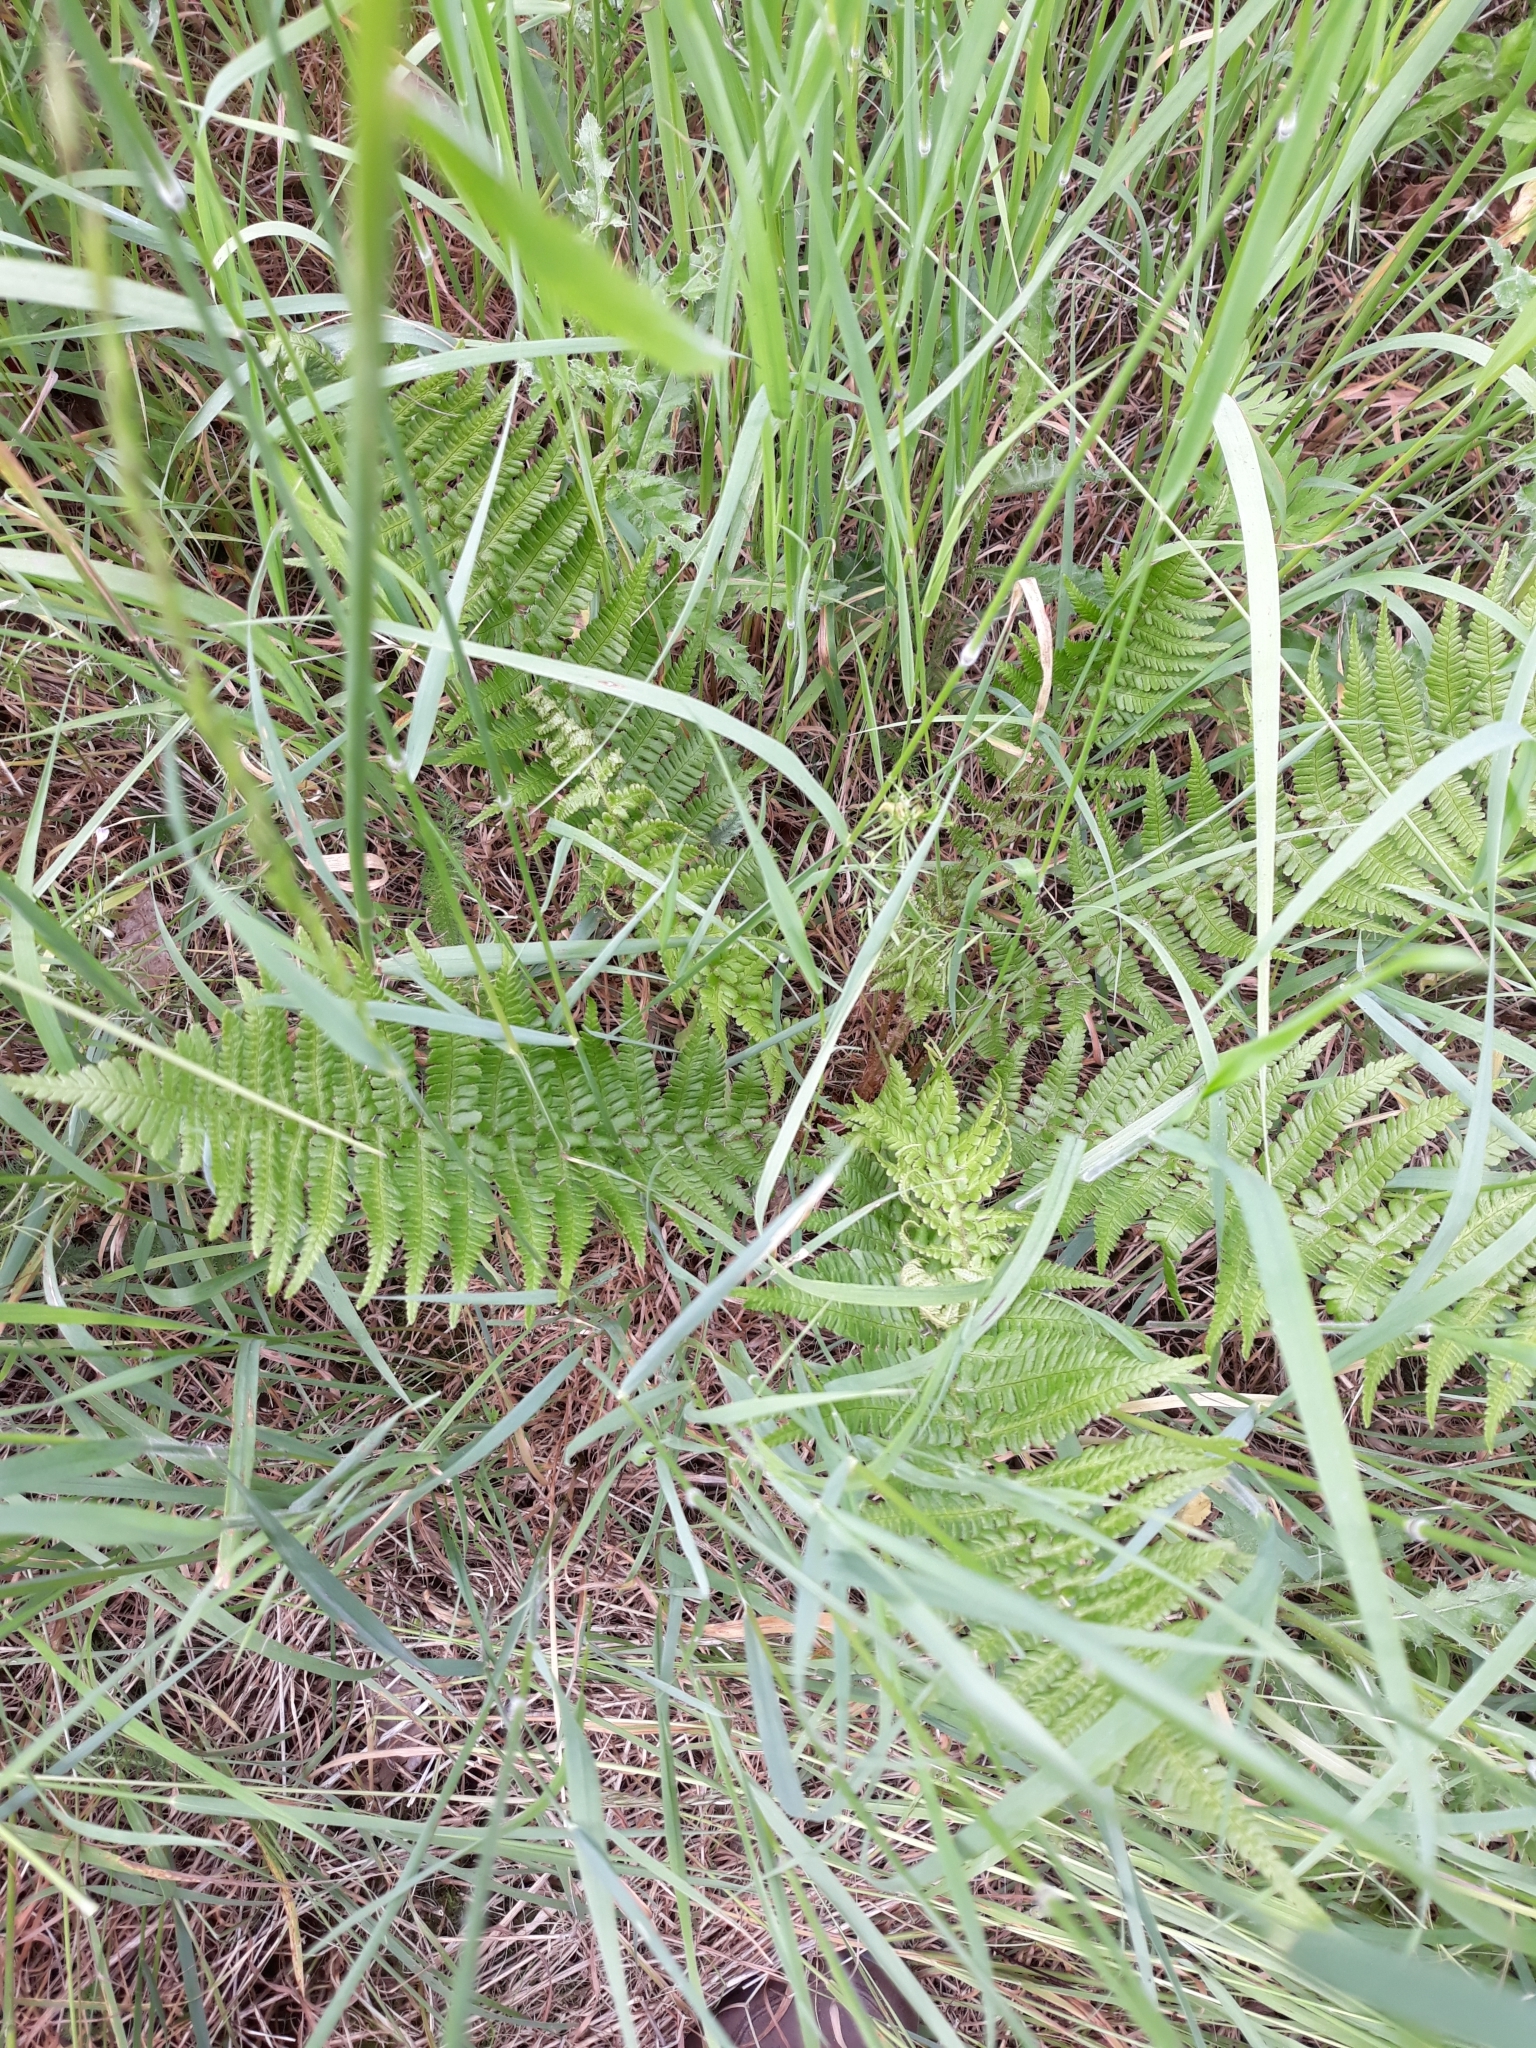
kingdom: Plantae
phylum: Tracheophyta
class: Polypodiopsida
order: Polypodiales
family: Dryopteridaceae
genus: Dryopteris
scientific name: Dryopteris filix-mas
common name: Male fern
